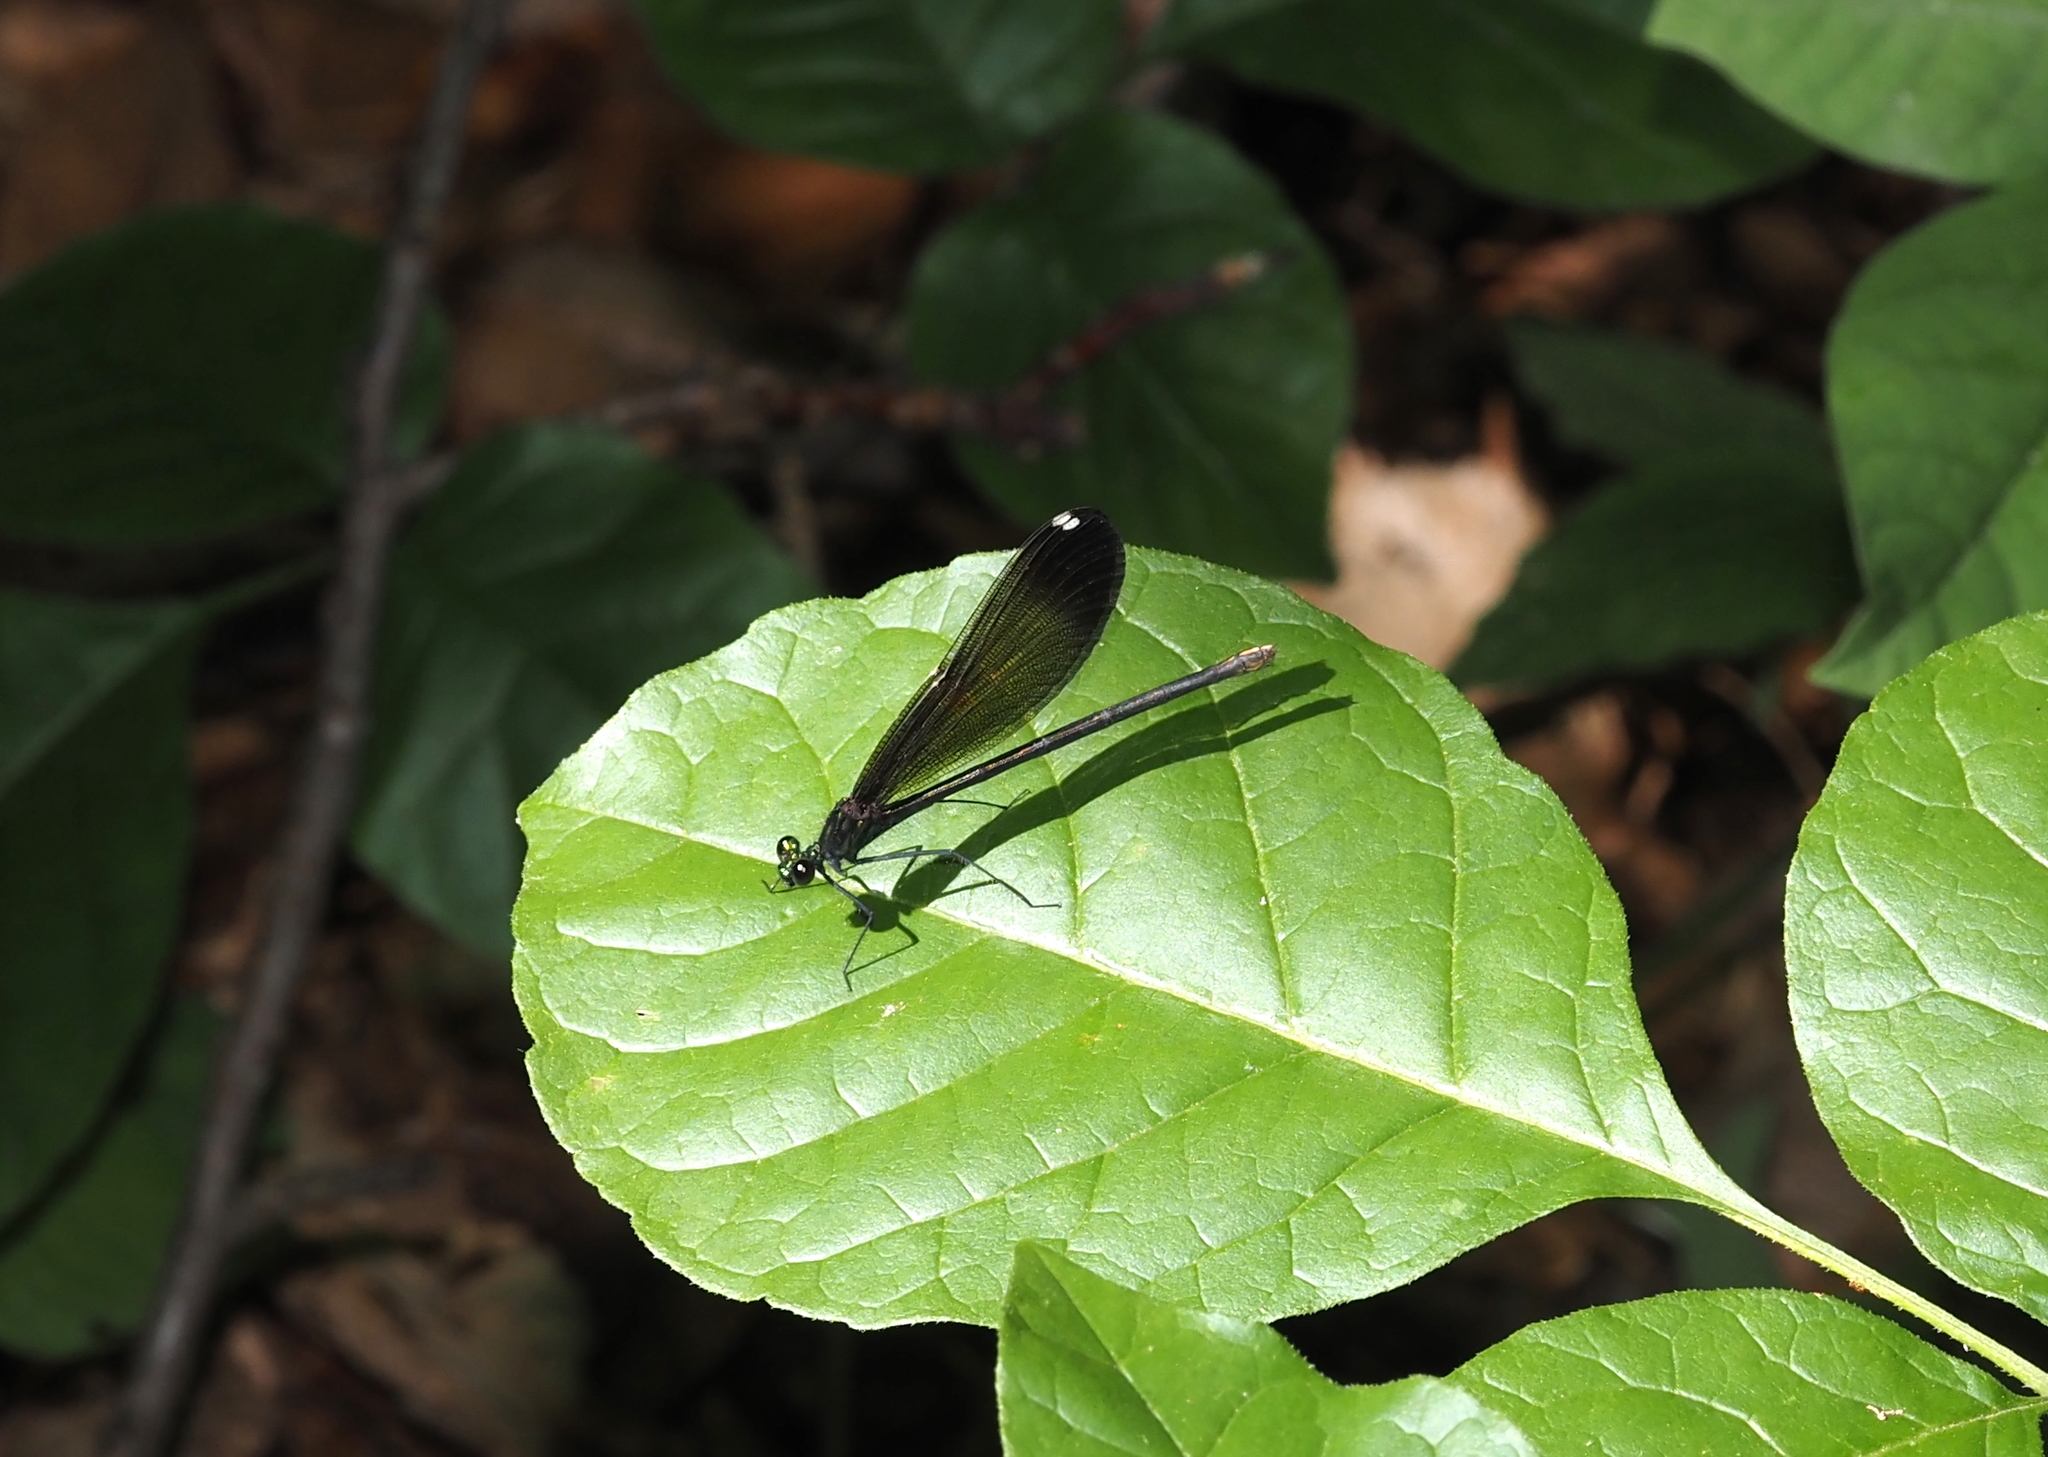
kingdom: Animalia
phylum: Arthropoda
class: Insecta
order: Odonata
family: Calopterygidae
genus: Calopteryx
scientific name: Calopteryx maculata
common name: Ebony jewelwing
